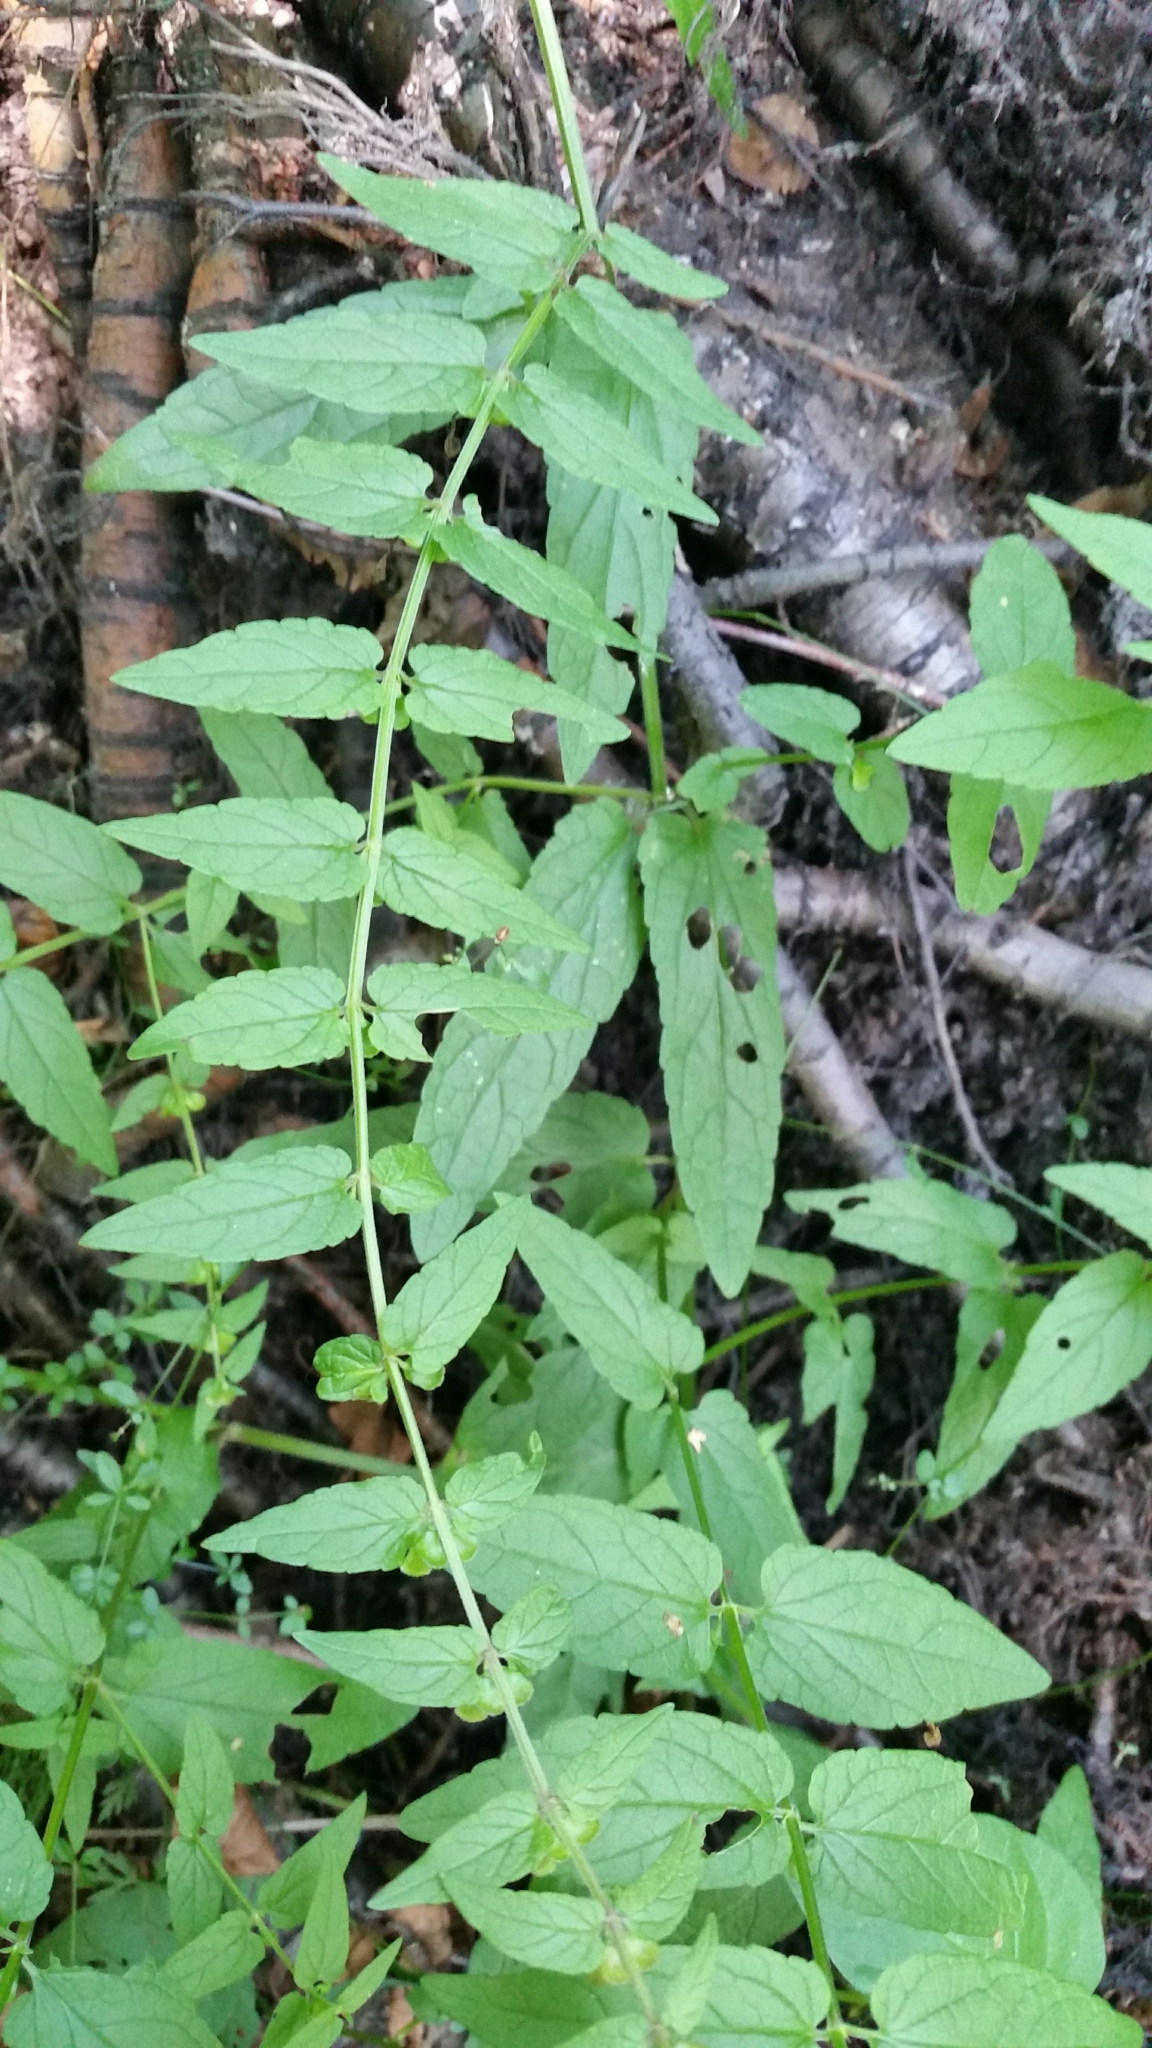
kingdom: Plantae
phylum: Tracheophyta
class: Magnoliopsida
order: Lamiales
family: Lamiaceae
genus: Scutellaria
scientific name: Scutellaria galericulata
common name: Skullcap
